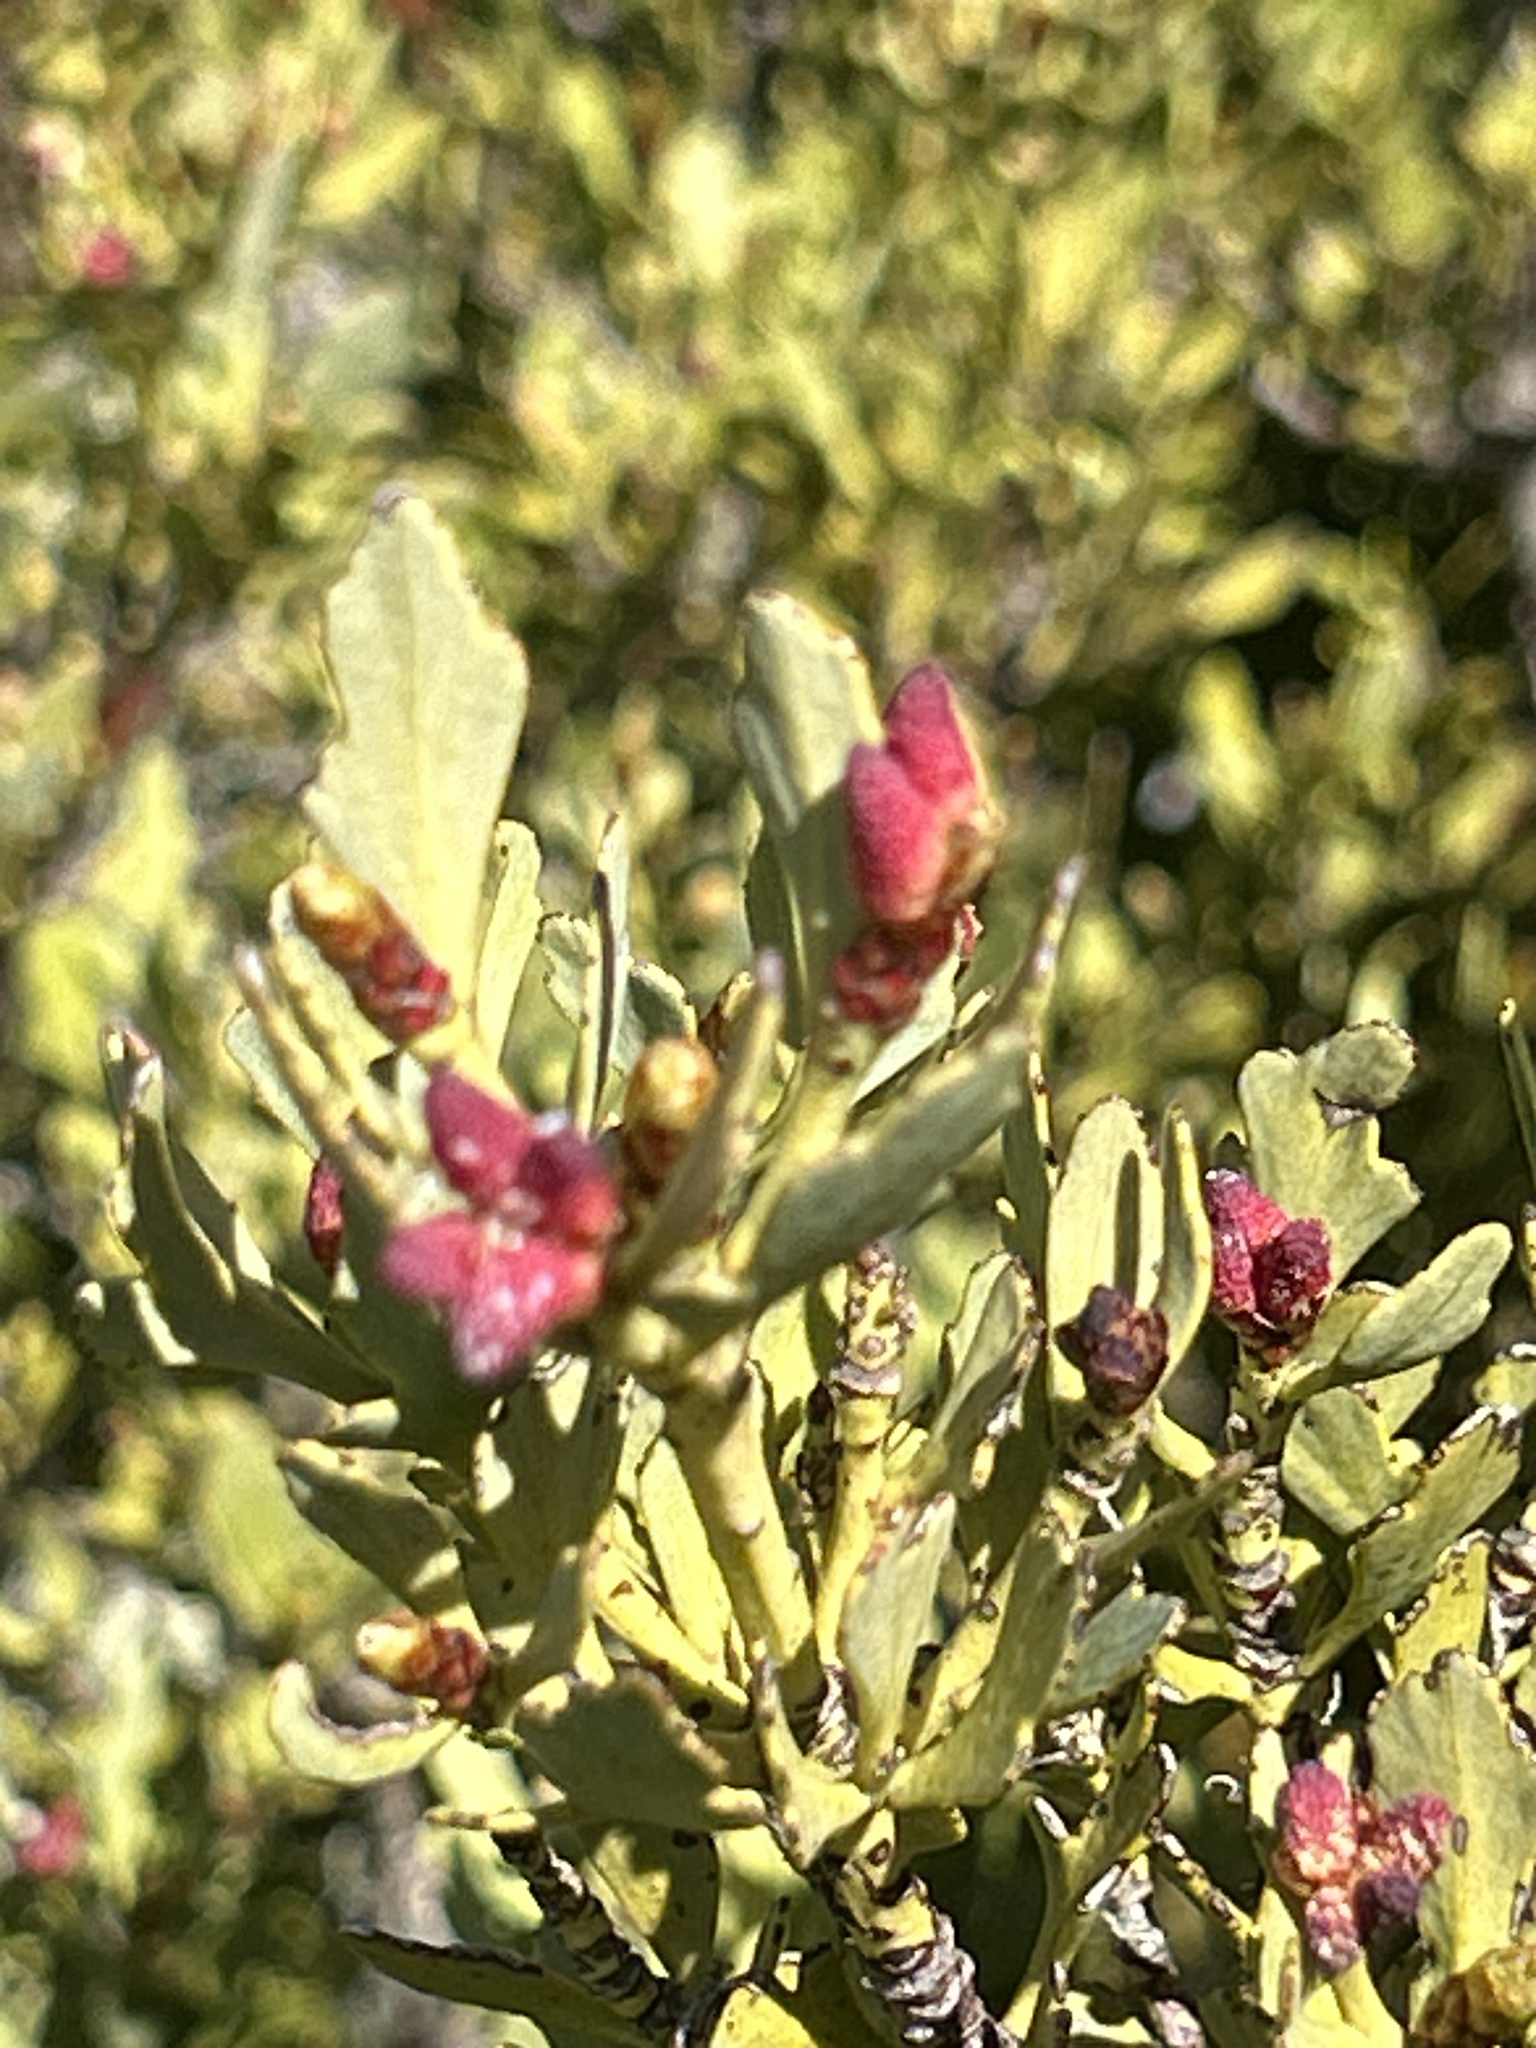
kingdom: Plantae
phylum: Tracheophyta
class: Pinopsida
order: Pinales
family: Phyllocladaceae
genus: Phyllocladus
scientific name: Phyllocladus trichomanoides
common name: Celery pine
